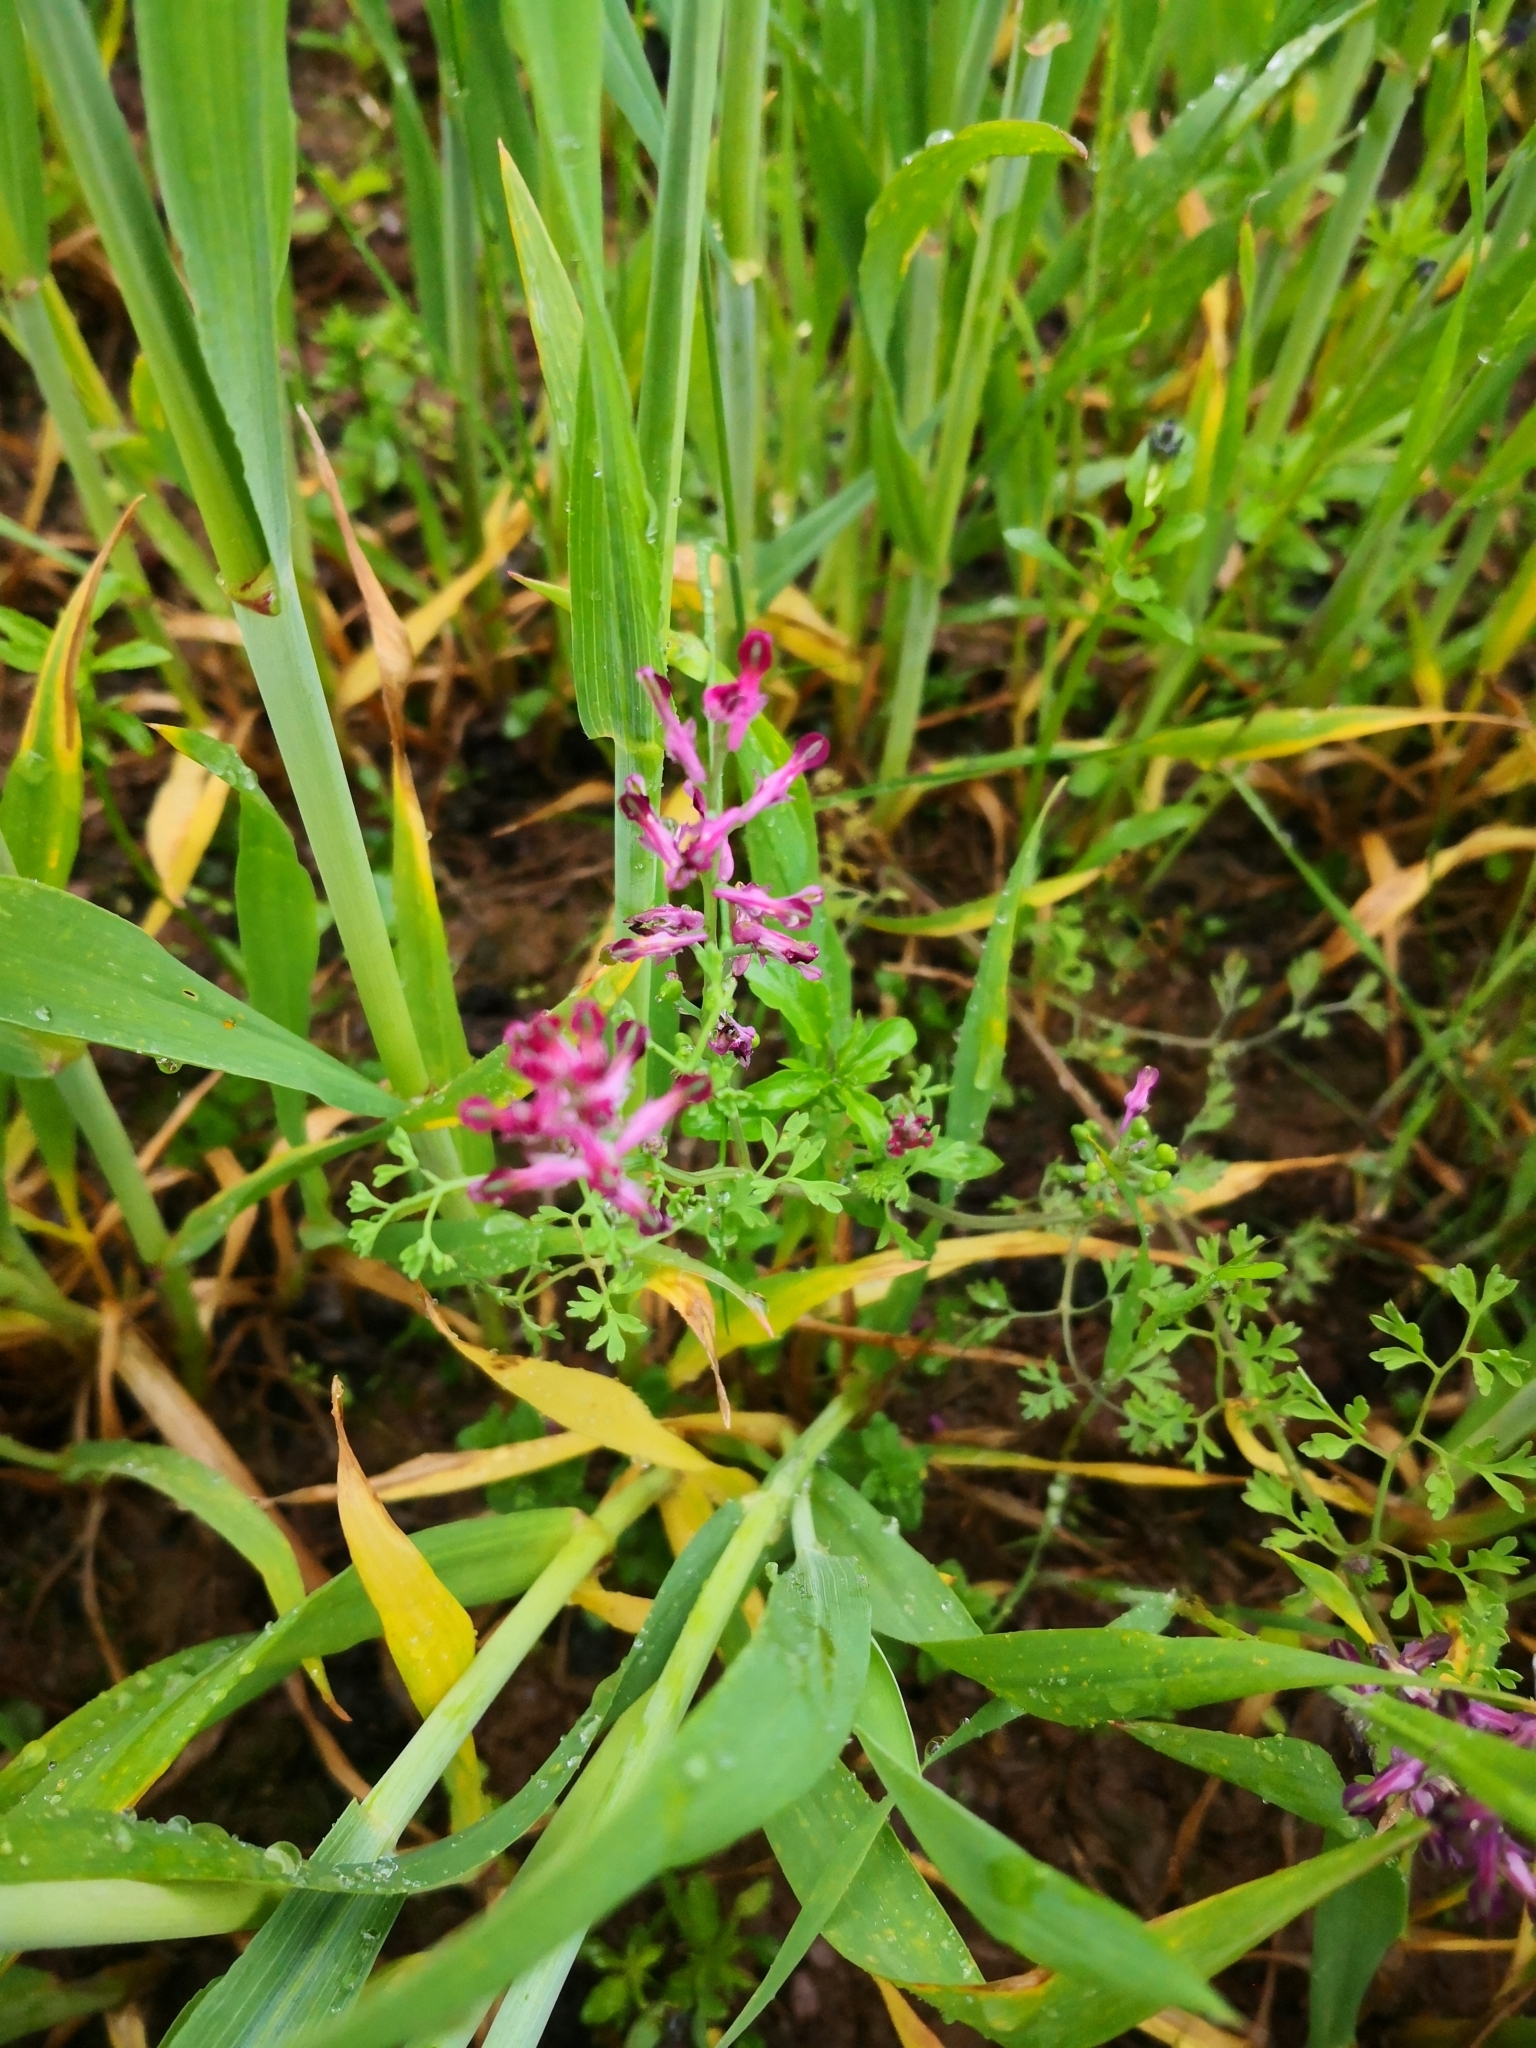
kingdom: Plantae
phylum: Tracheophyta
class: Magnoliopsida
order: Ranunculales
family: Papaveraceae
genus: Fumaria
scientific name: Fumaria officinalis
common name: Common fumitory
